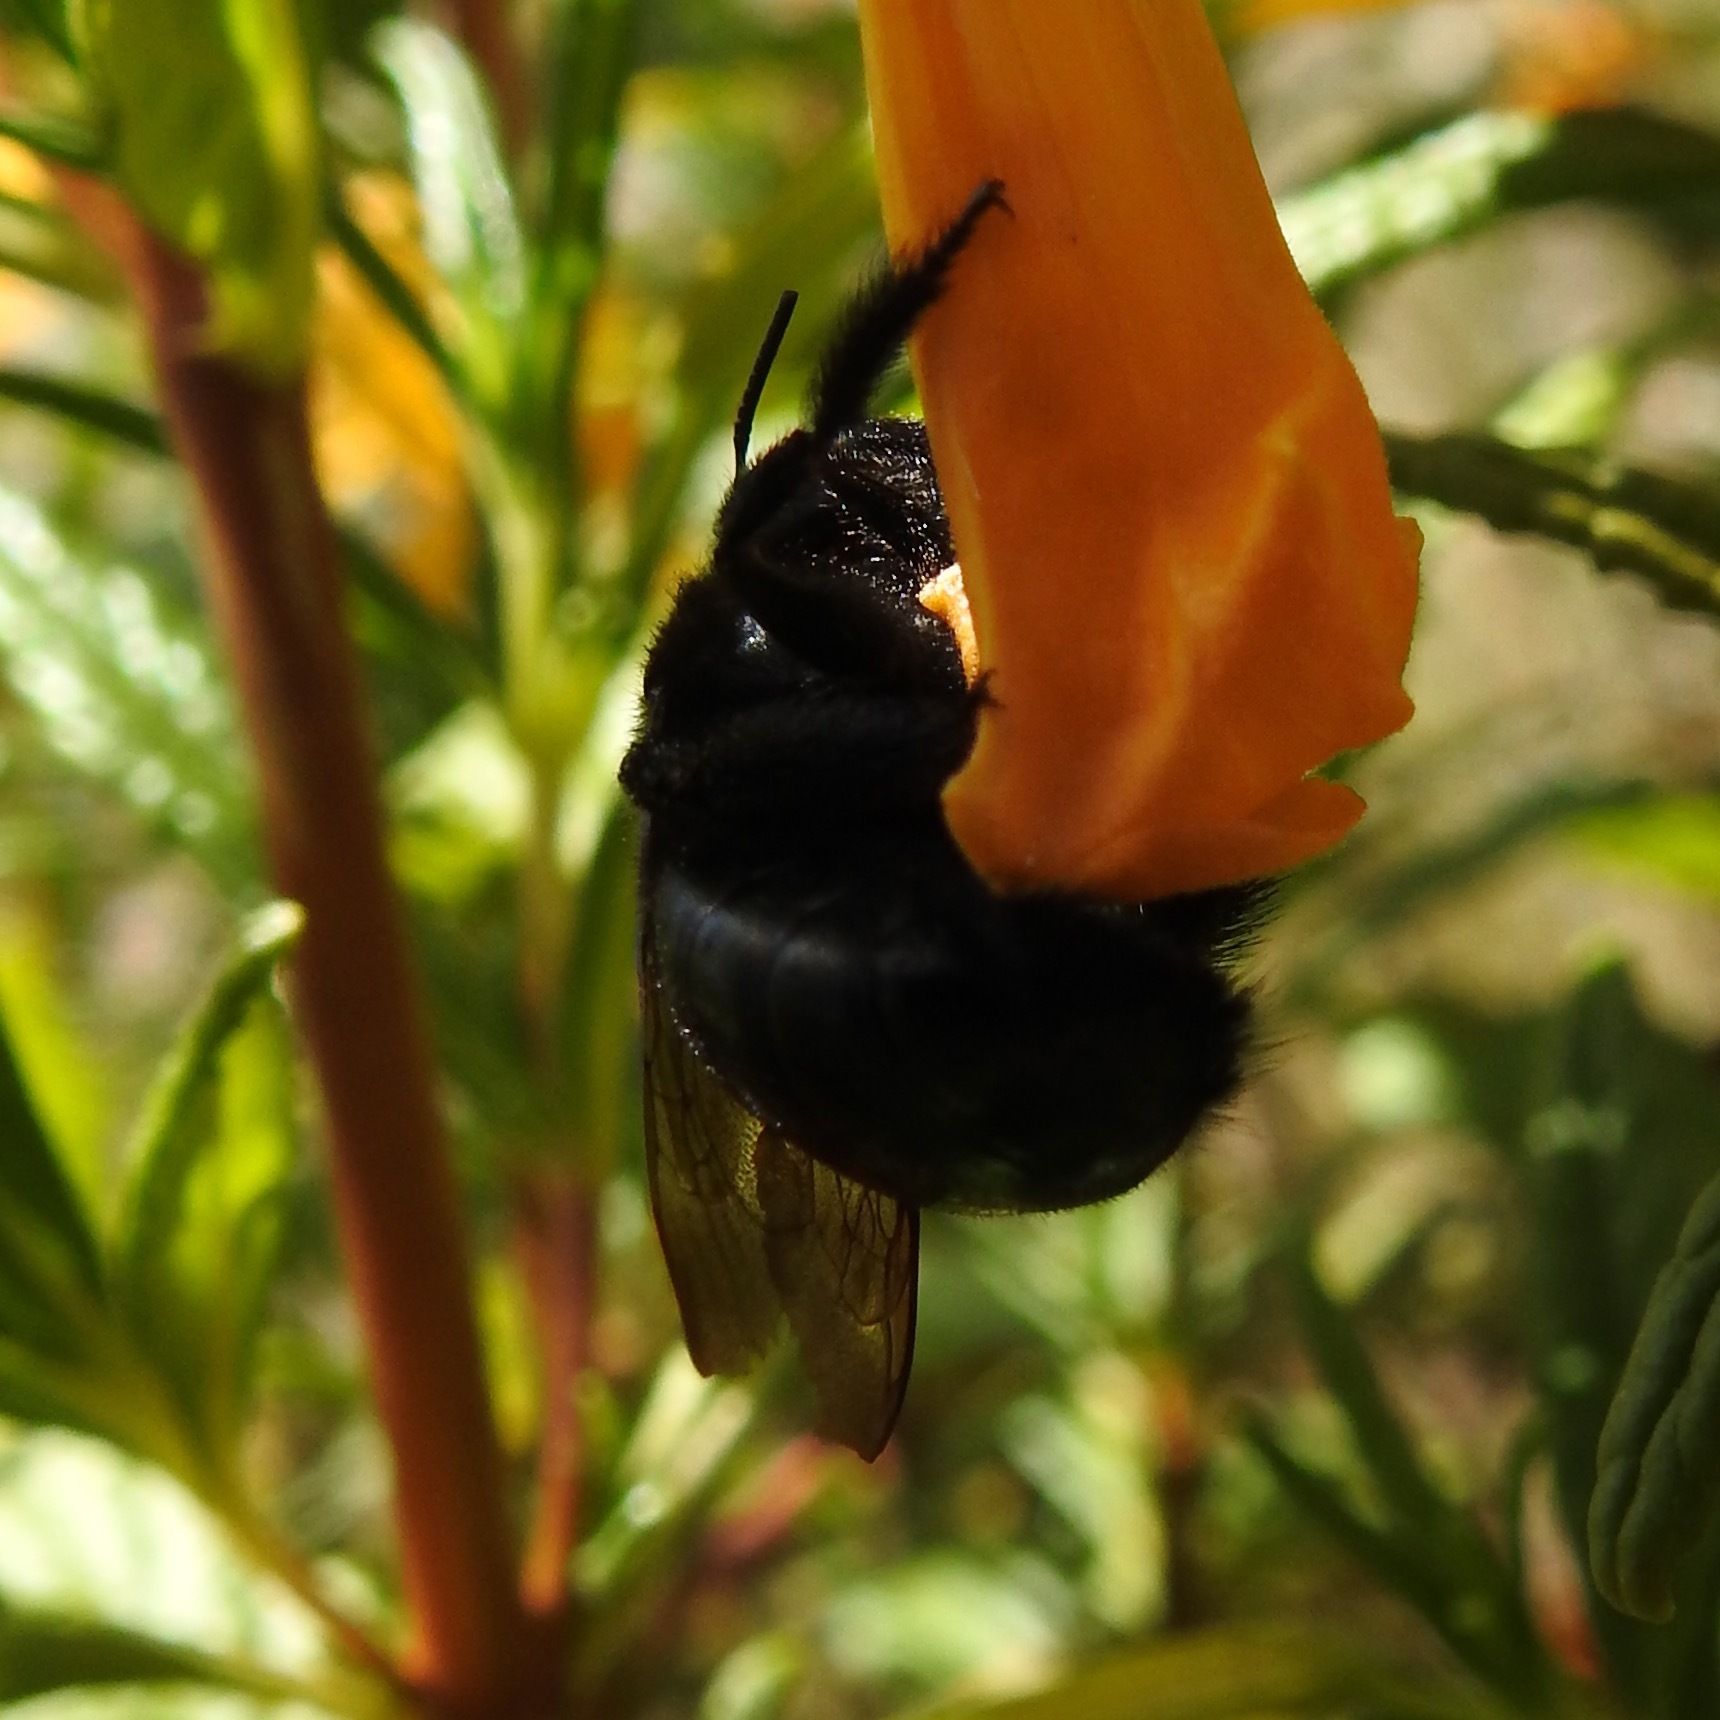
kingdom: Plantae
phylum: Tracheophyta
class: Magnoliopsida
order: Lamiales
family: Phrymaceae
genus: Diplacus
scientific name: Diplacus aurantiacus
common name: Bush monkey-flower
